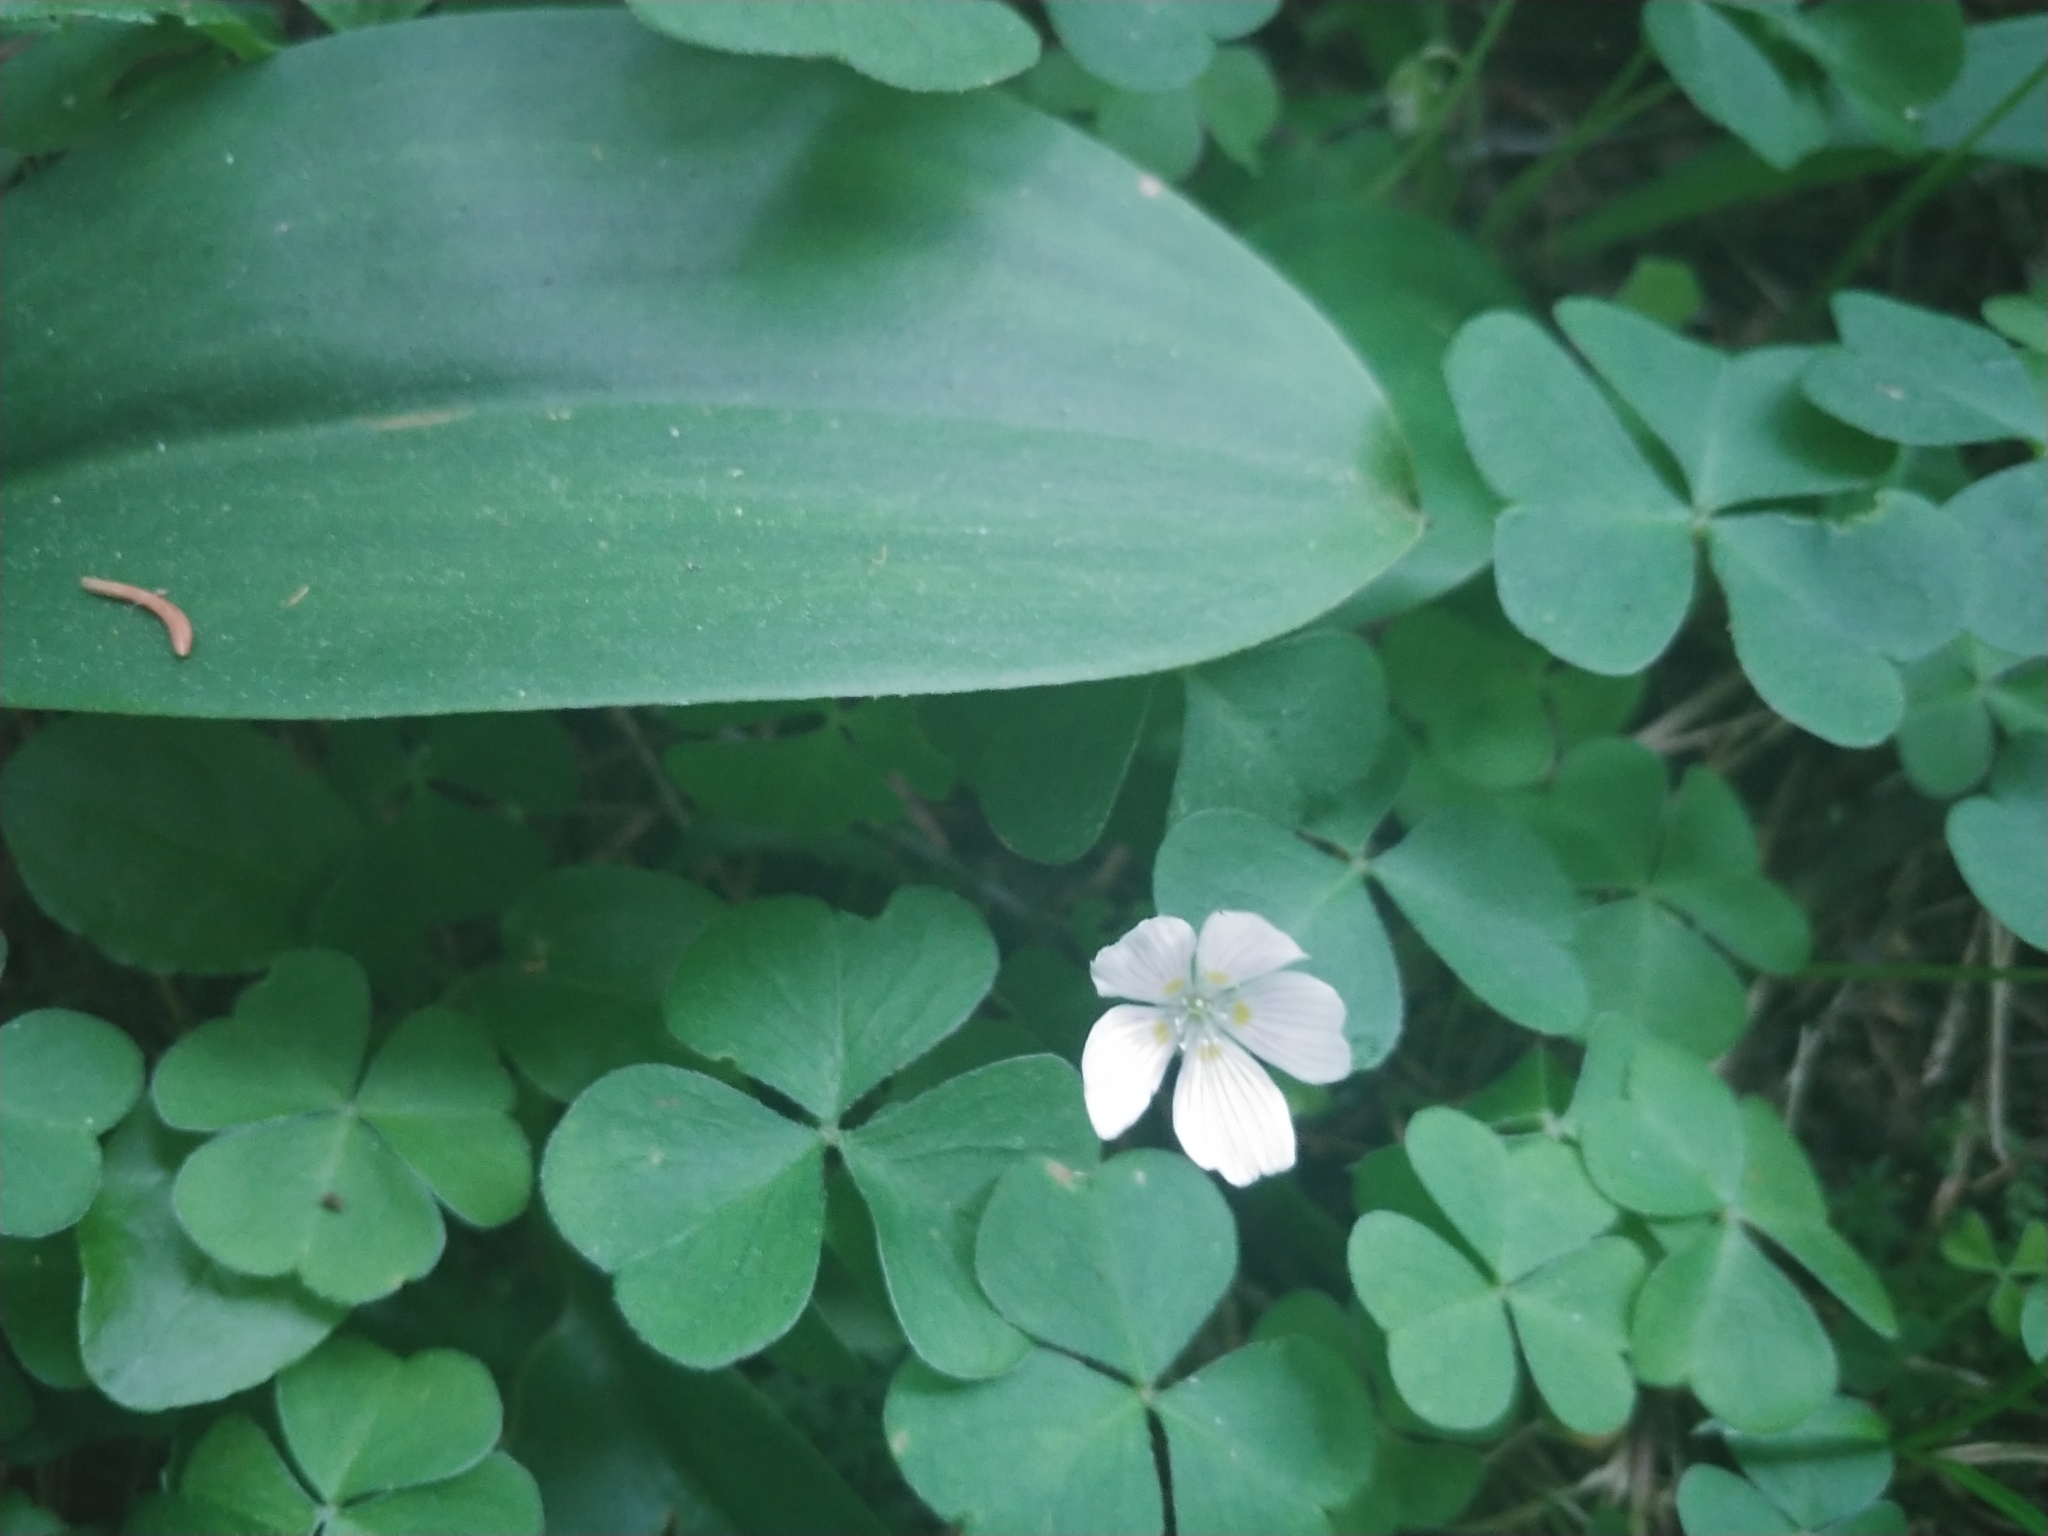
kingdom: Plantae
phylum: Tracheophyta
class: Magnoliopsida
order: Oxalidales
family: Oxalidaceae
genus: Oxalis
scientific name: Oxalis montana
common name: American wood-sorrel
